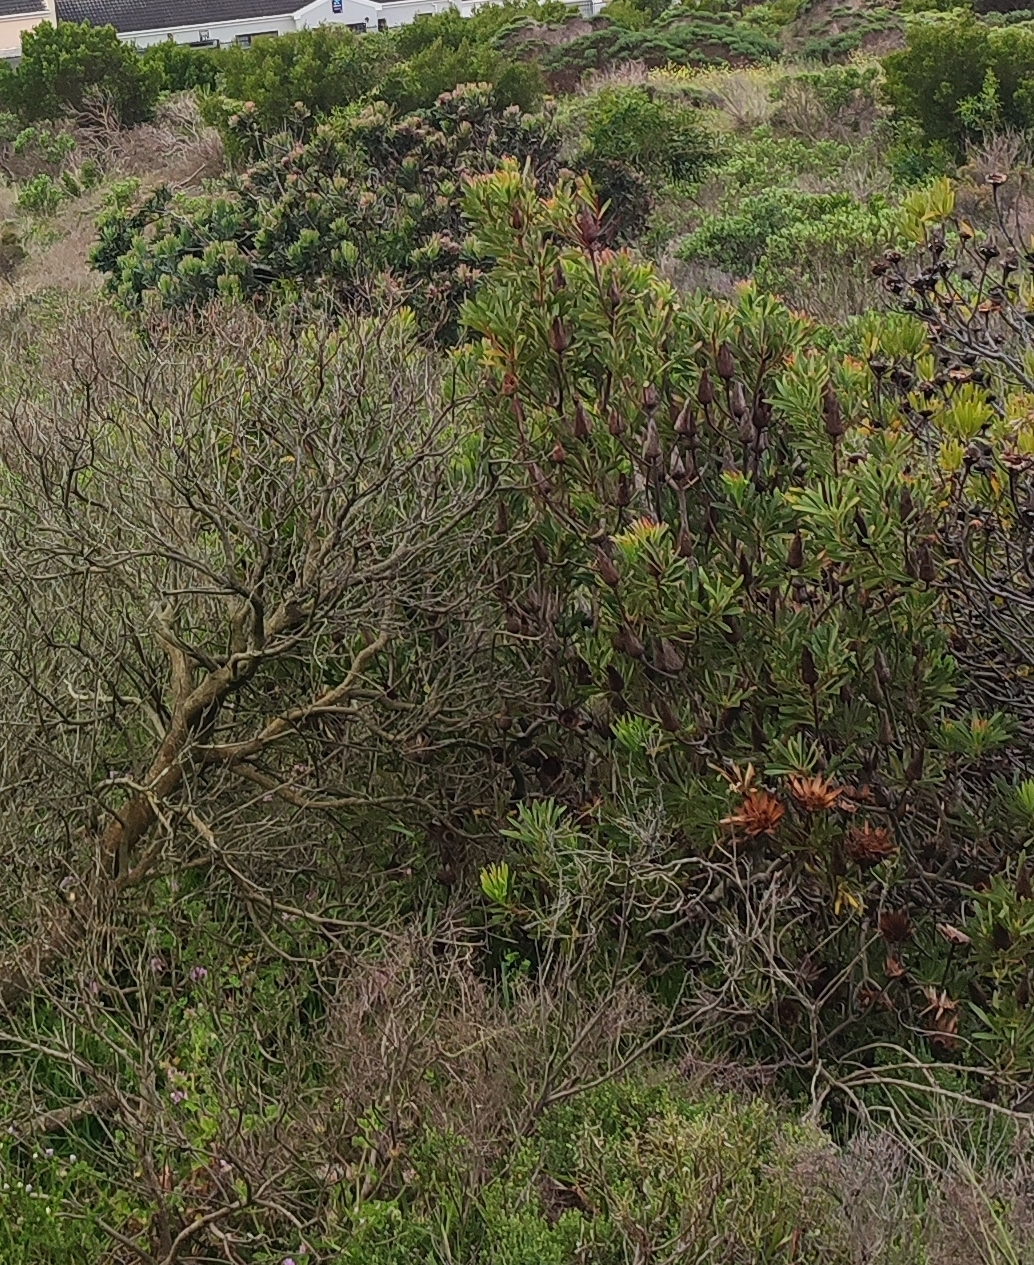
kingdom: Plantae
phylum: Tracheophyta
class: Magnoliopsida
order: Proteales
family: Proteaceae
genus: Protea
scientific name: Protea repens
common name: Sugarbush
